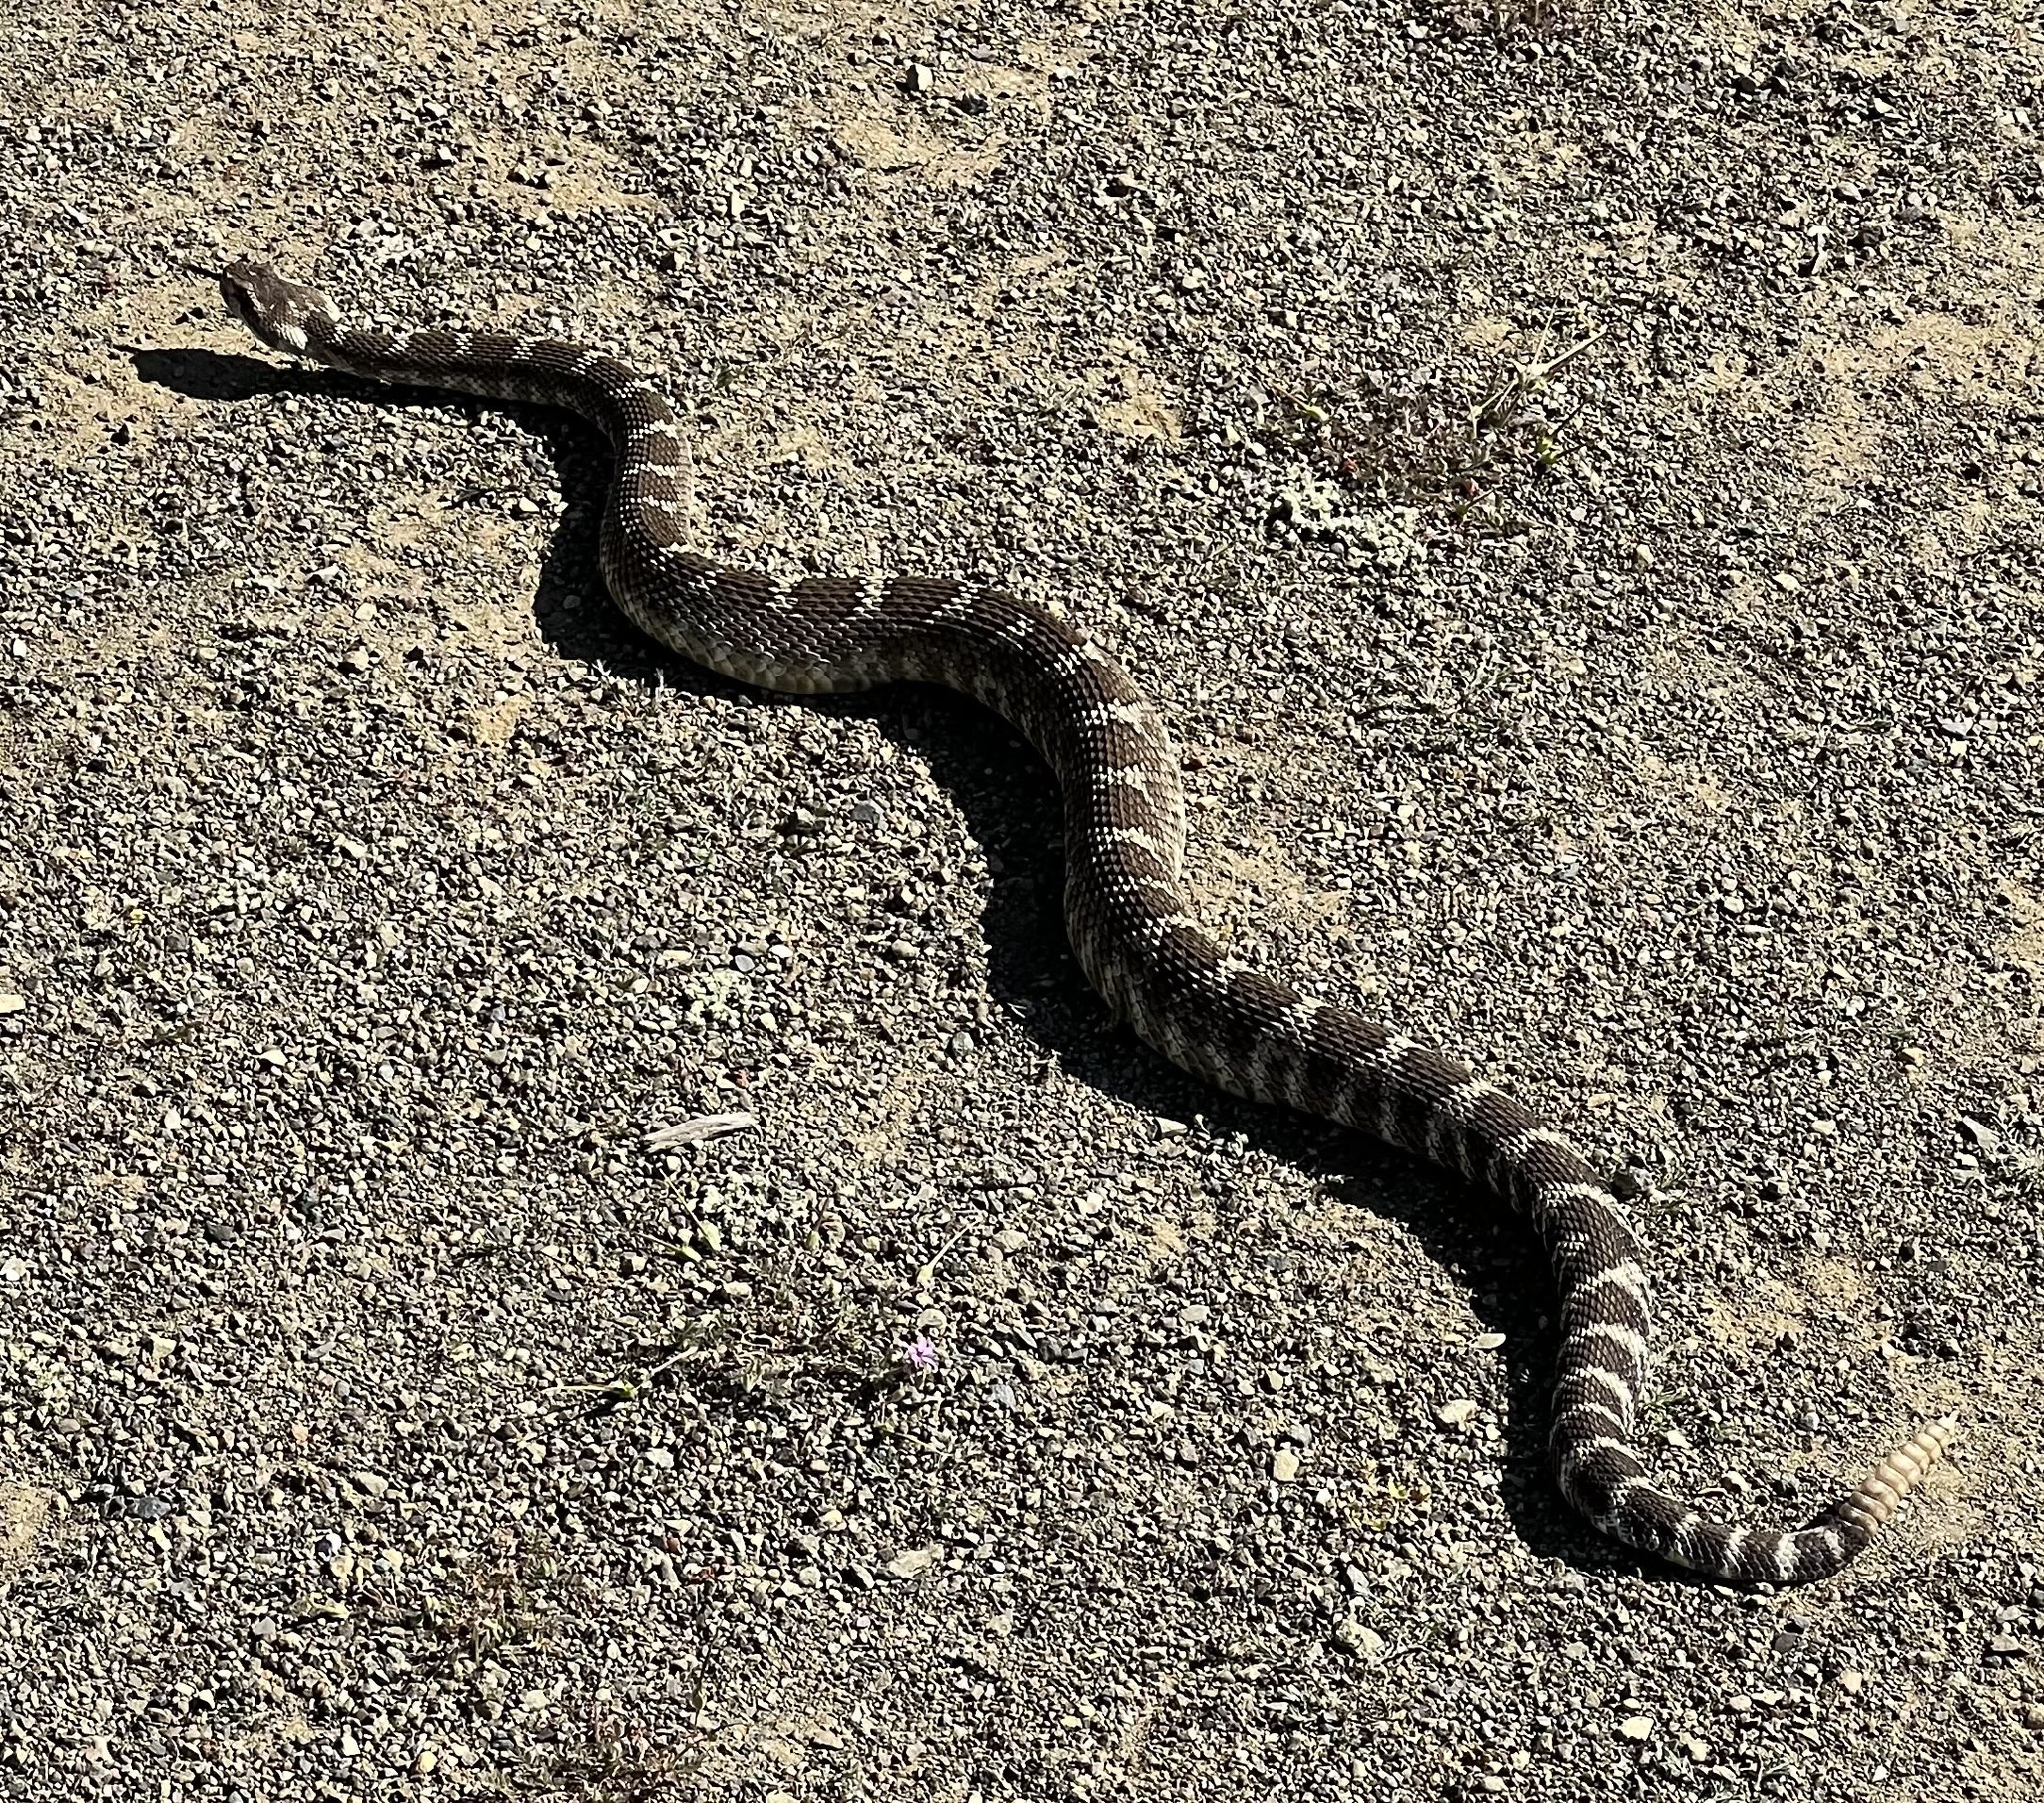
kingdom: Animalia
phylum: Chordata
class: Squamata
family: Viperidae
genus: Crotalus
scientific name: Crotalus oreganus
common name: Abyssus
